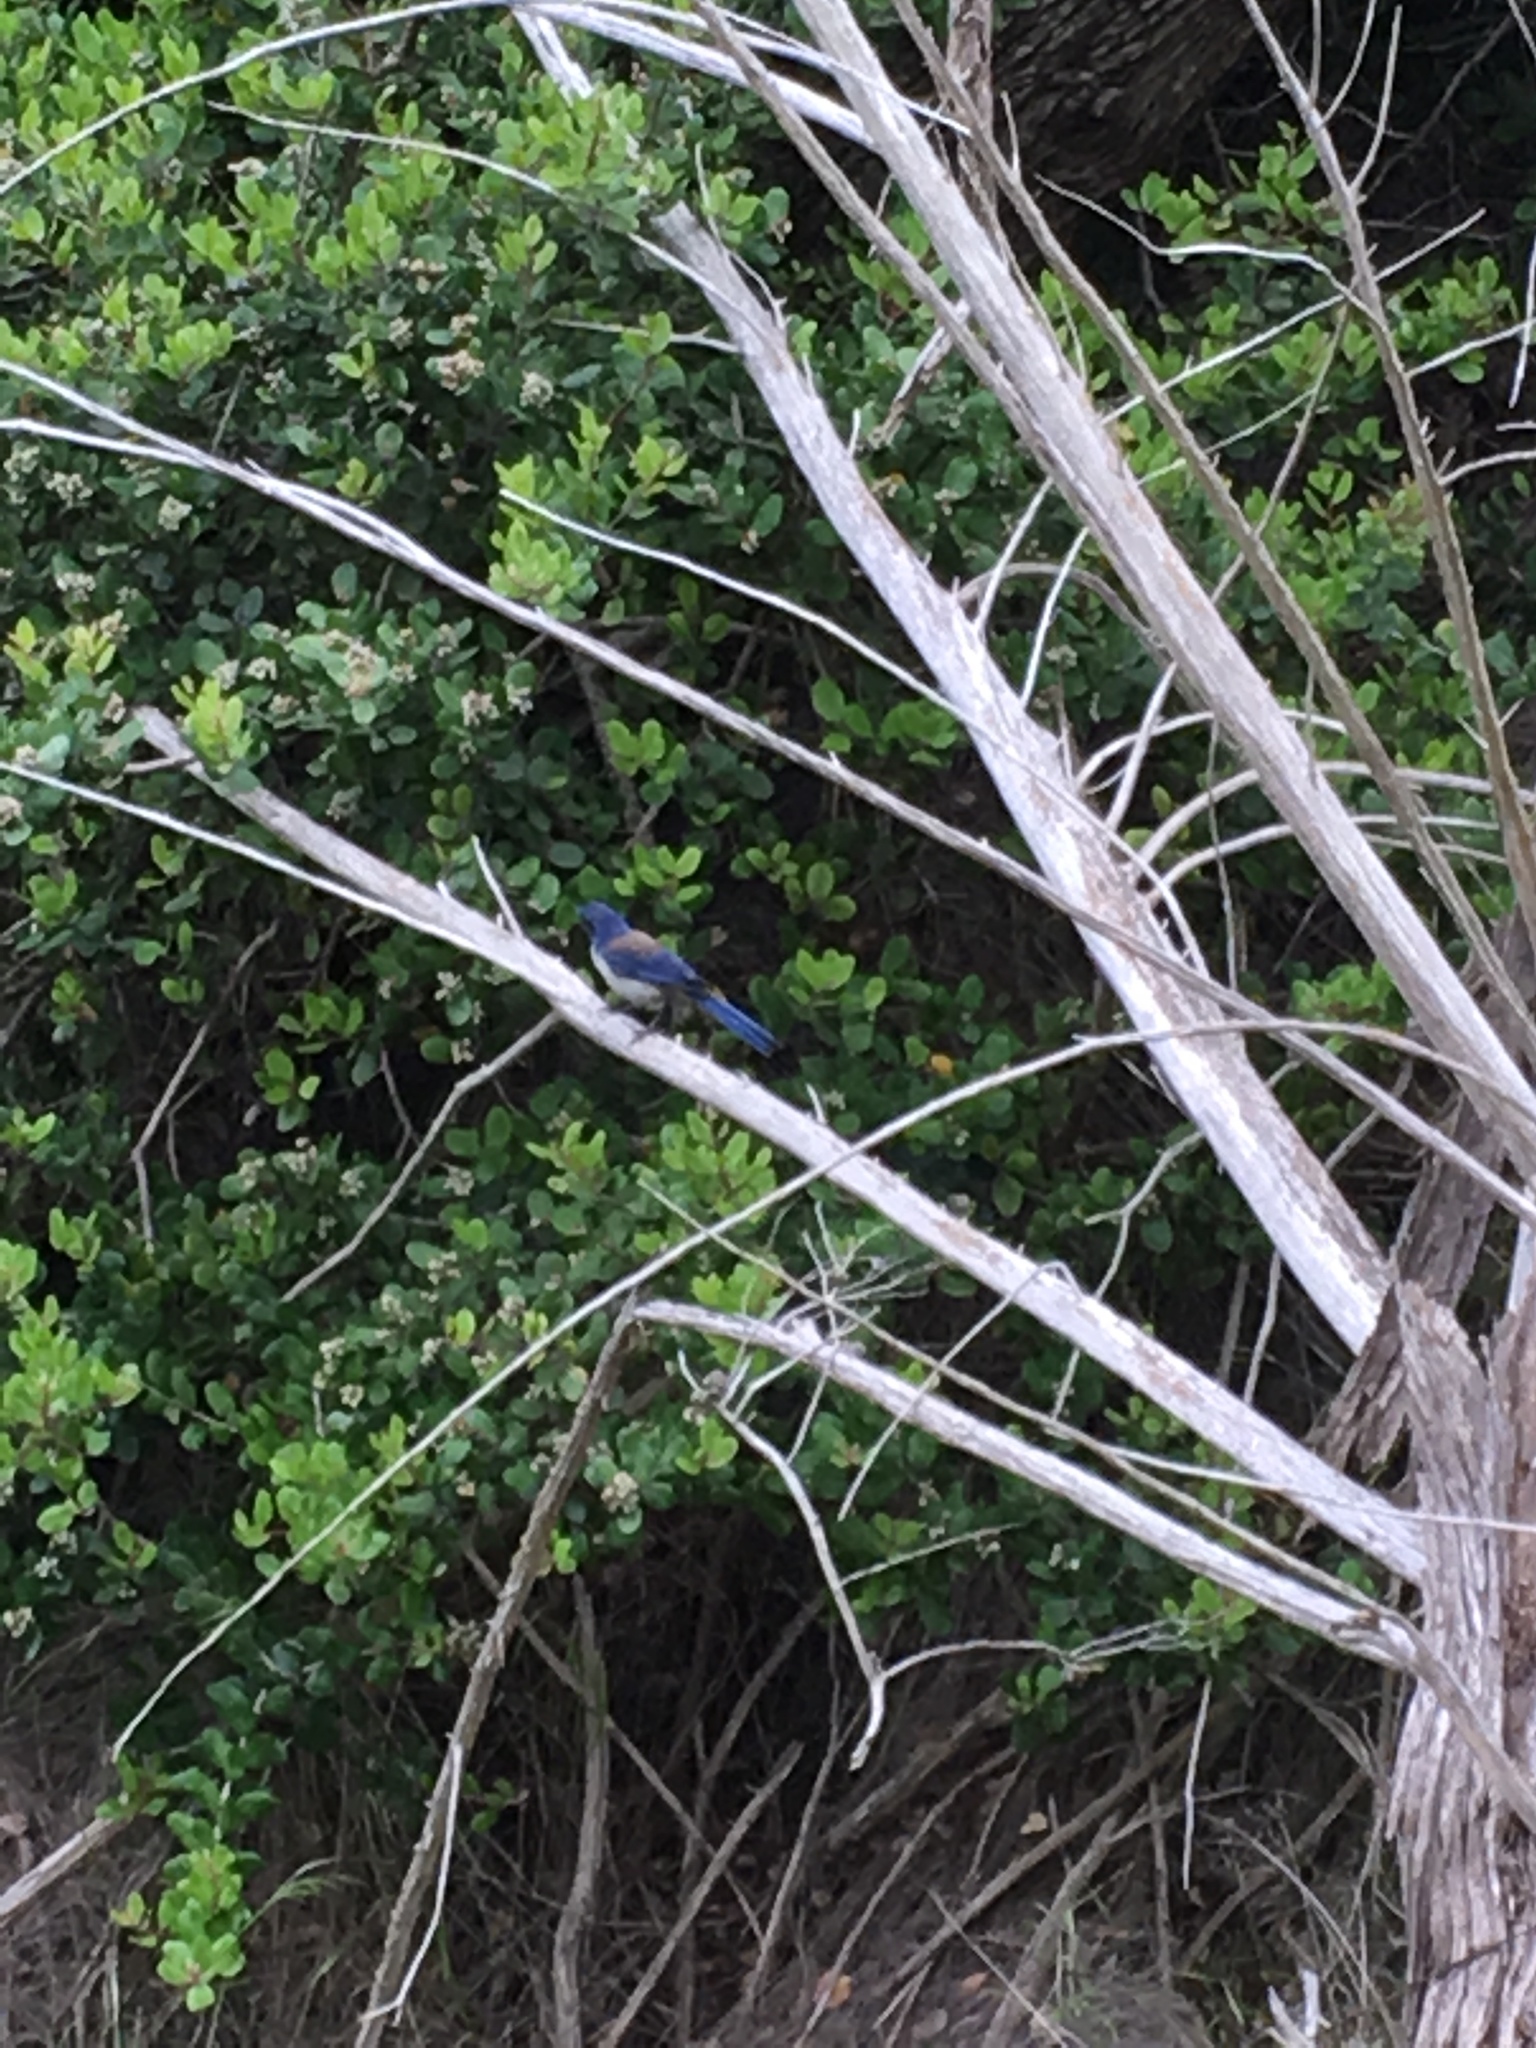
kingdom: Animalia
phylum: Chordata
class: Aves
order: Passeriformes
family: Corvidae
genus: Aphelocoma
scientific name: Aphelocoma insularis
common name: Island scrub-jay
